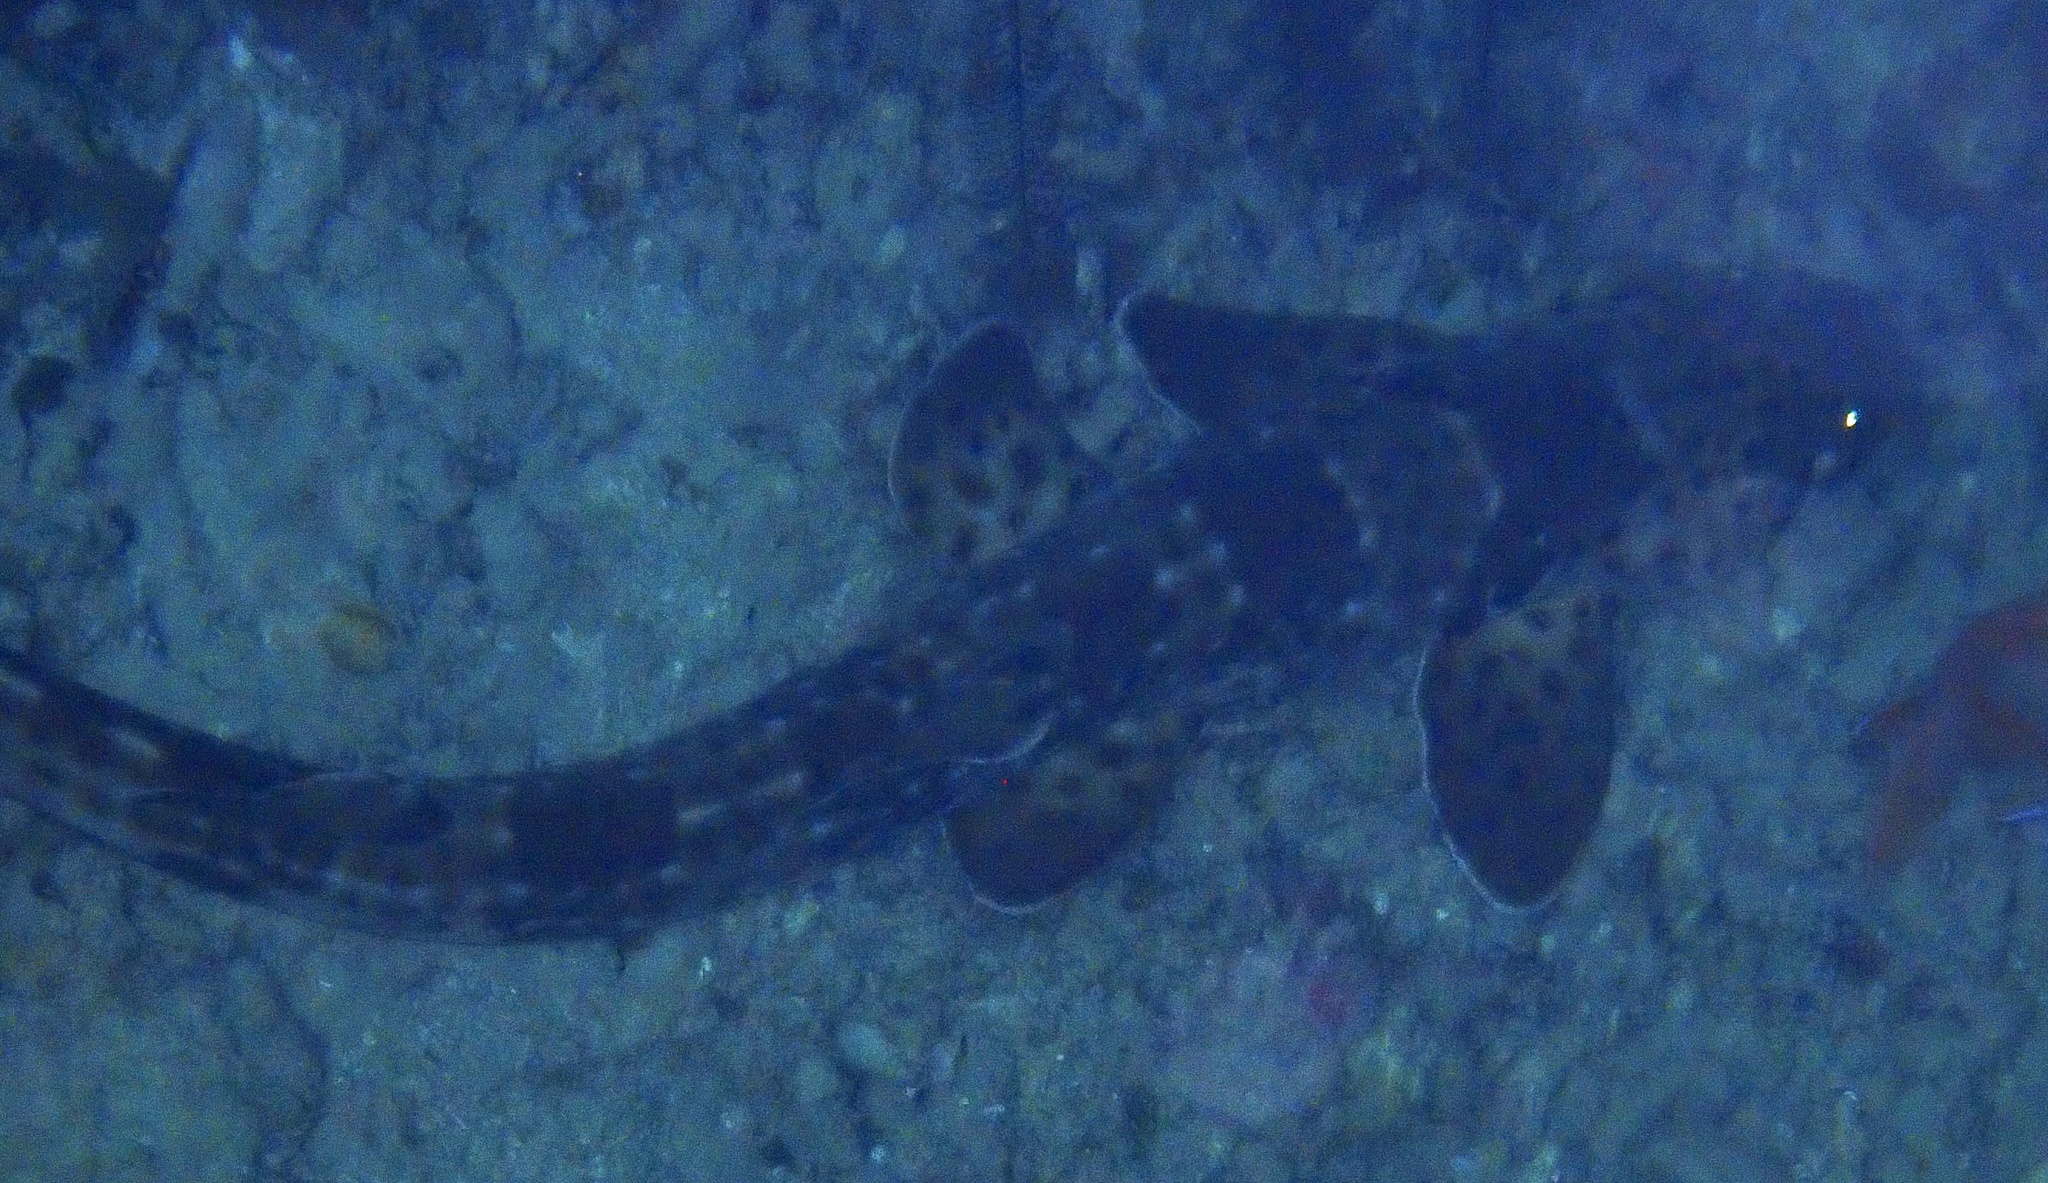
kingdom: Animalia
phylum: Chordata
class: Elasmobranchii
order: Orectolobiformes
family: Hemiscylliidae
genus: Hemiscyllium
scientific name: Hemiscyllium freycineti
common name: Indonesian speckled carpetshark
